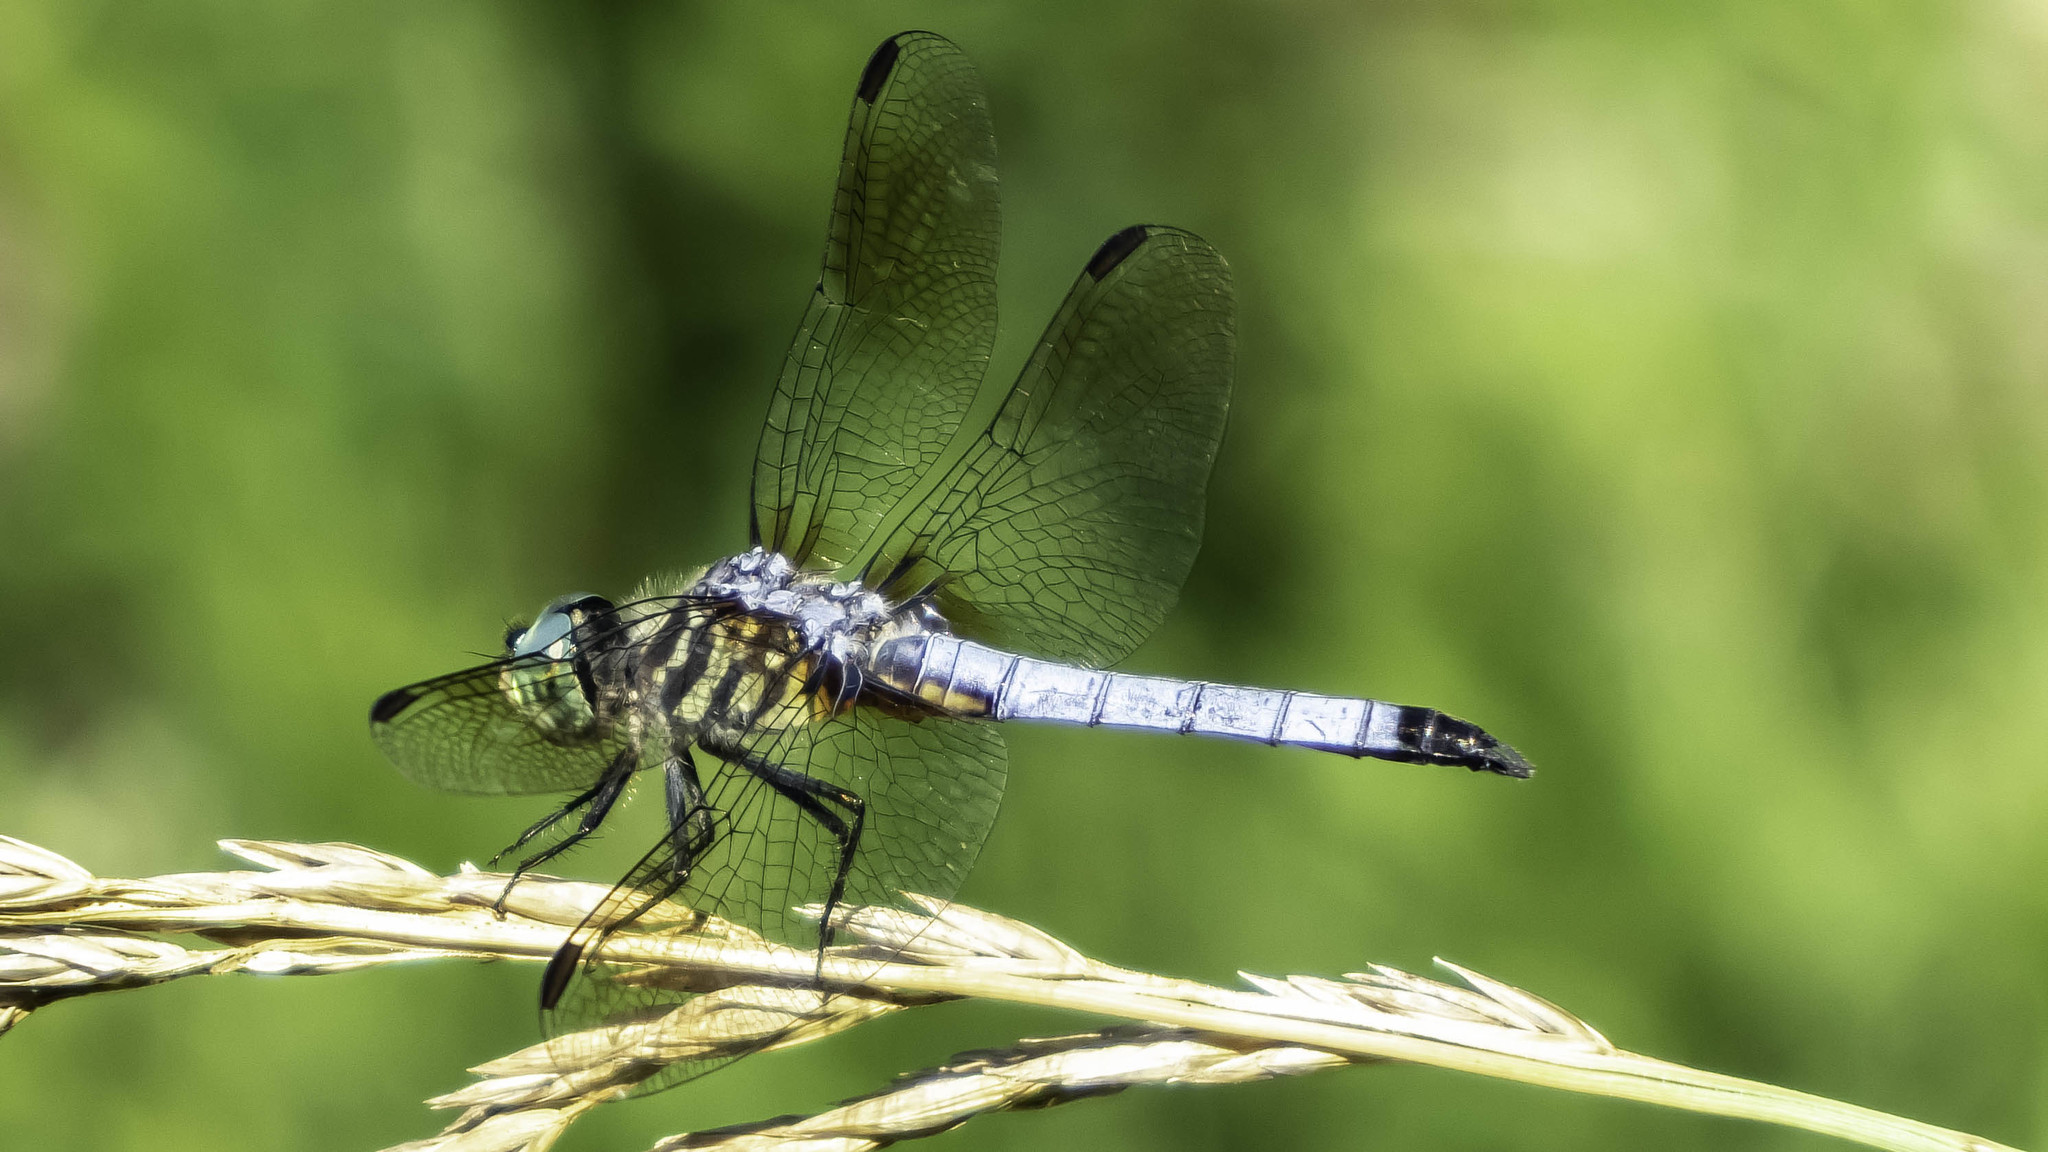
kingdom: Animalia
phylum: Arthropoda
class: Insecta
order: Odonata
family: Libellulidae
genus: Pachydiplax
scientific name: Pachydiplax longipennis
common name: Blue dasher
